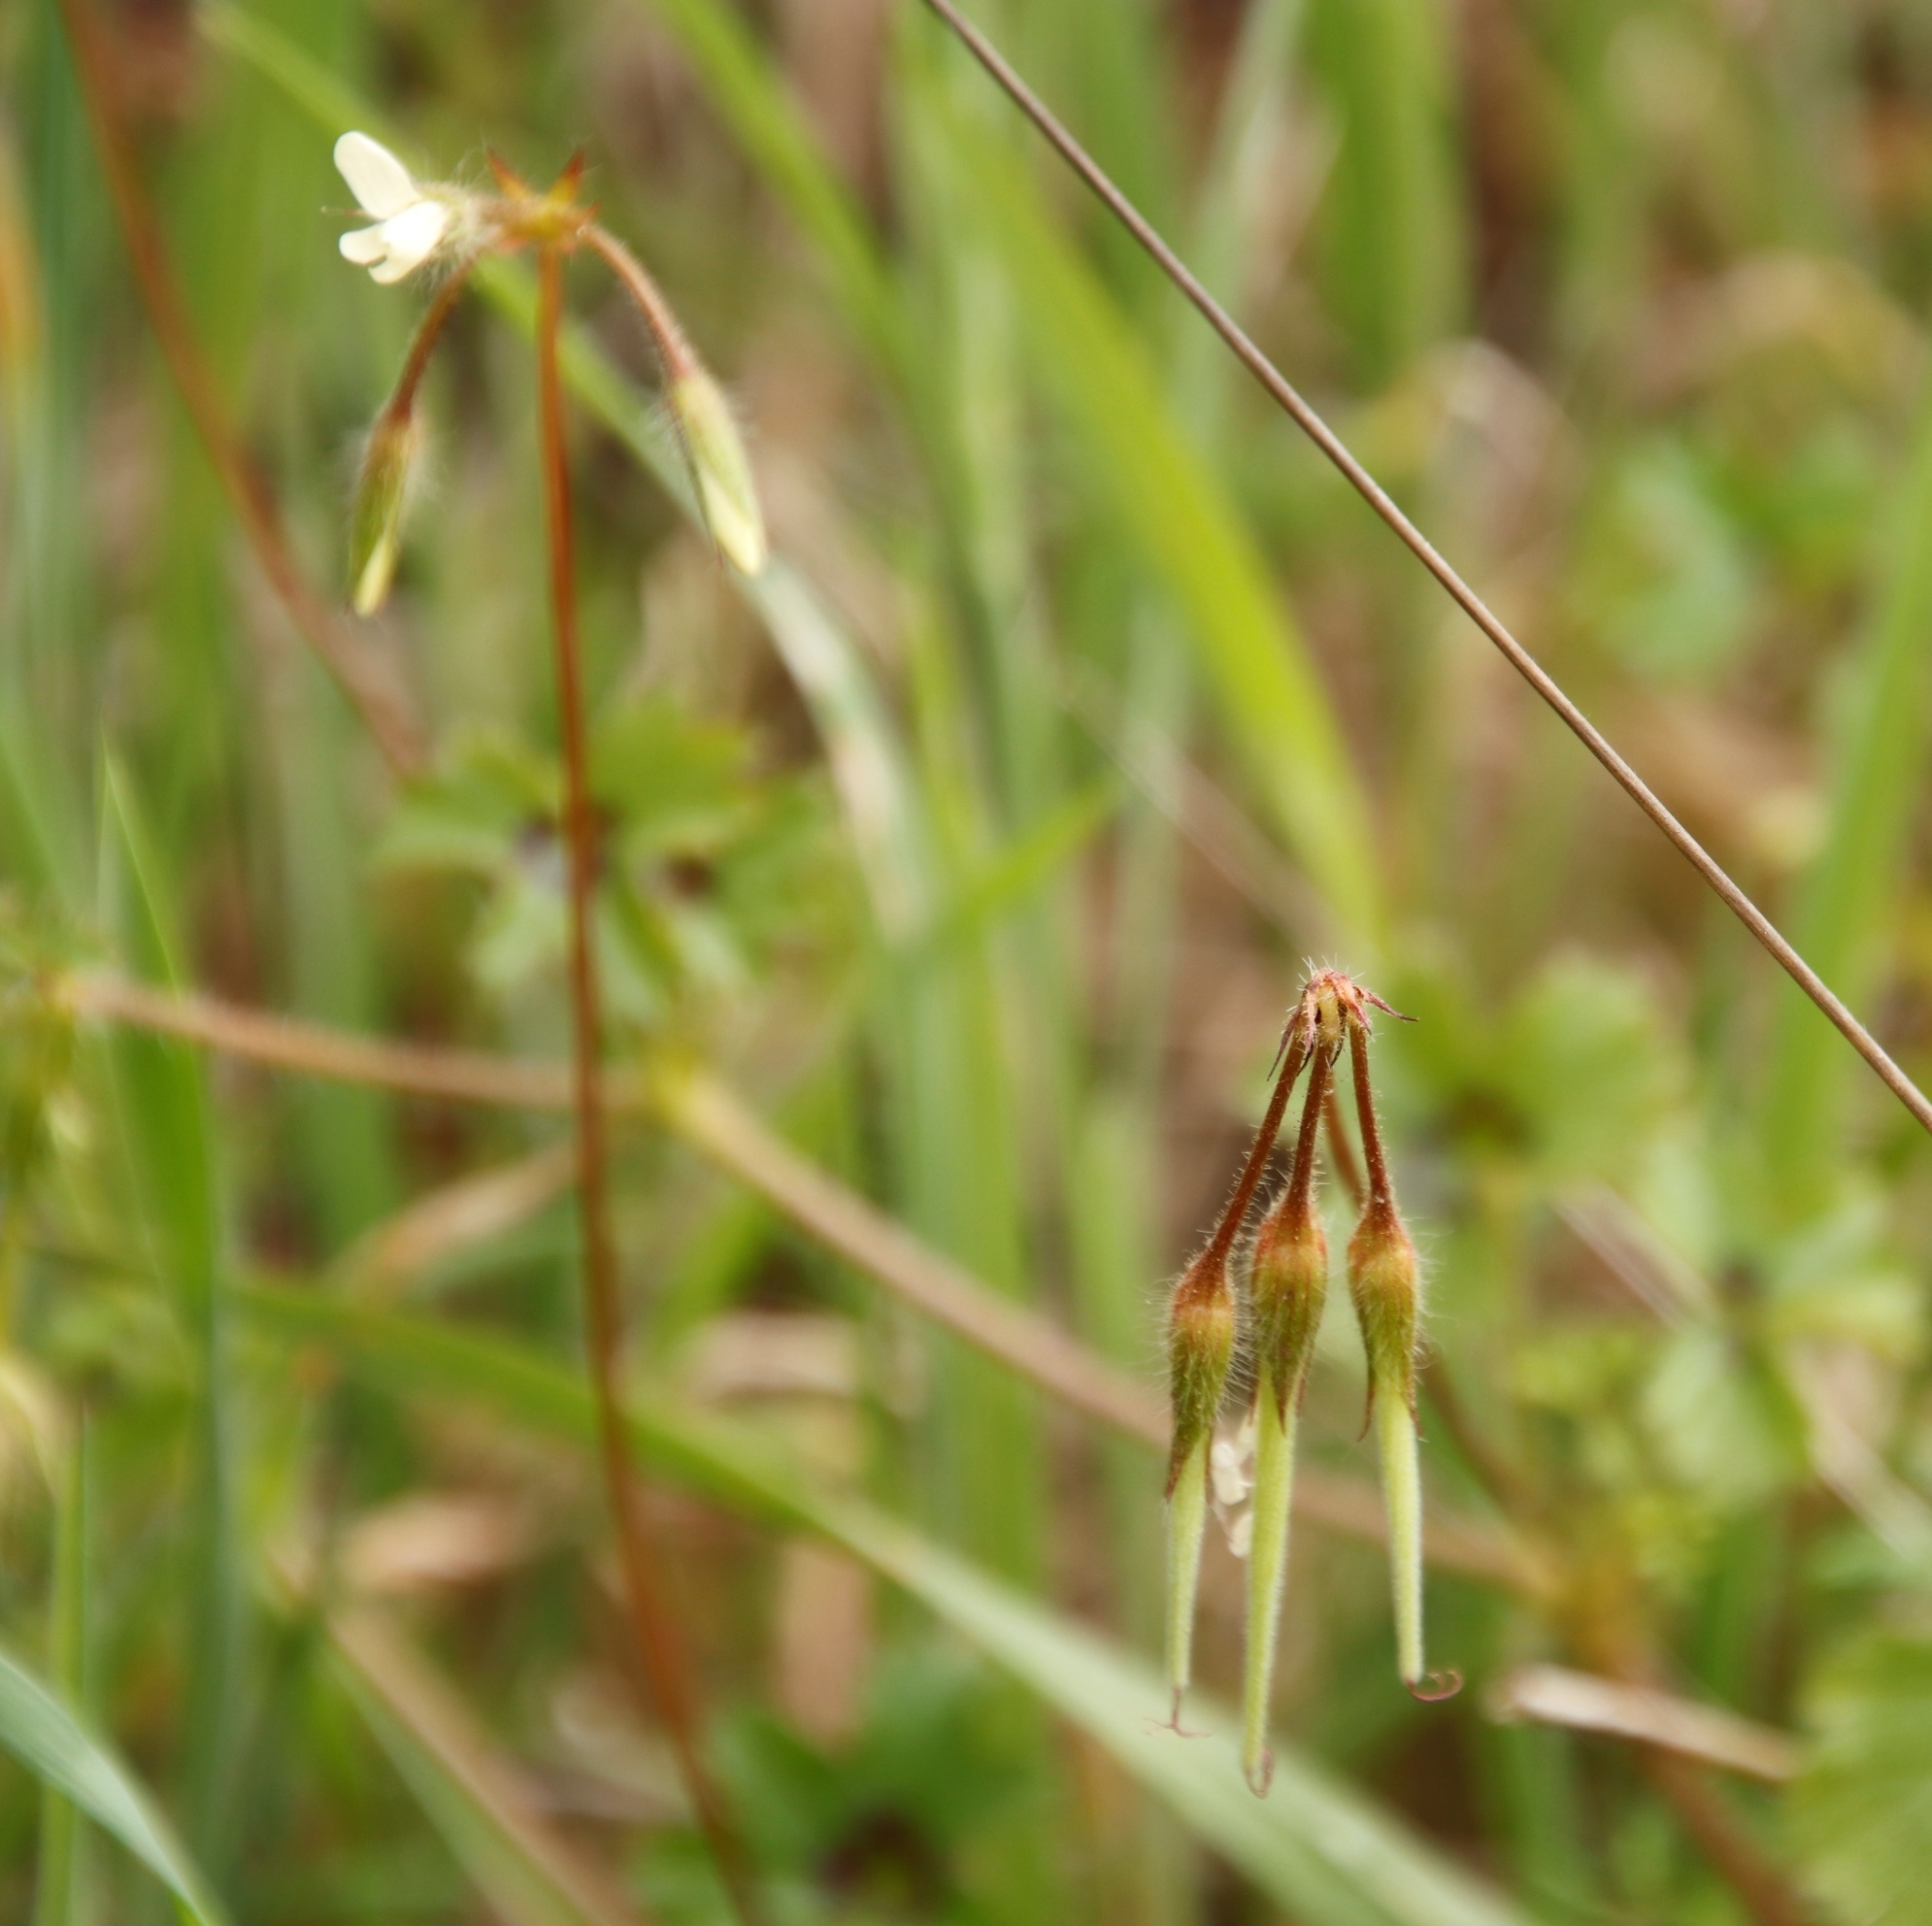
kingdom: Plantae
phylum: Tracheophyta
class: Magnoliopsida
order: Geraniales
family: Geraniaceae
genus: Pelargonium
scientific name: Pelargonium elongatum
